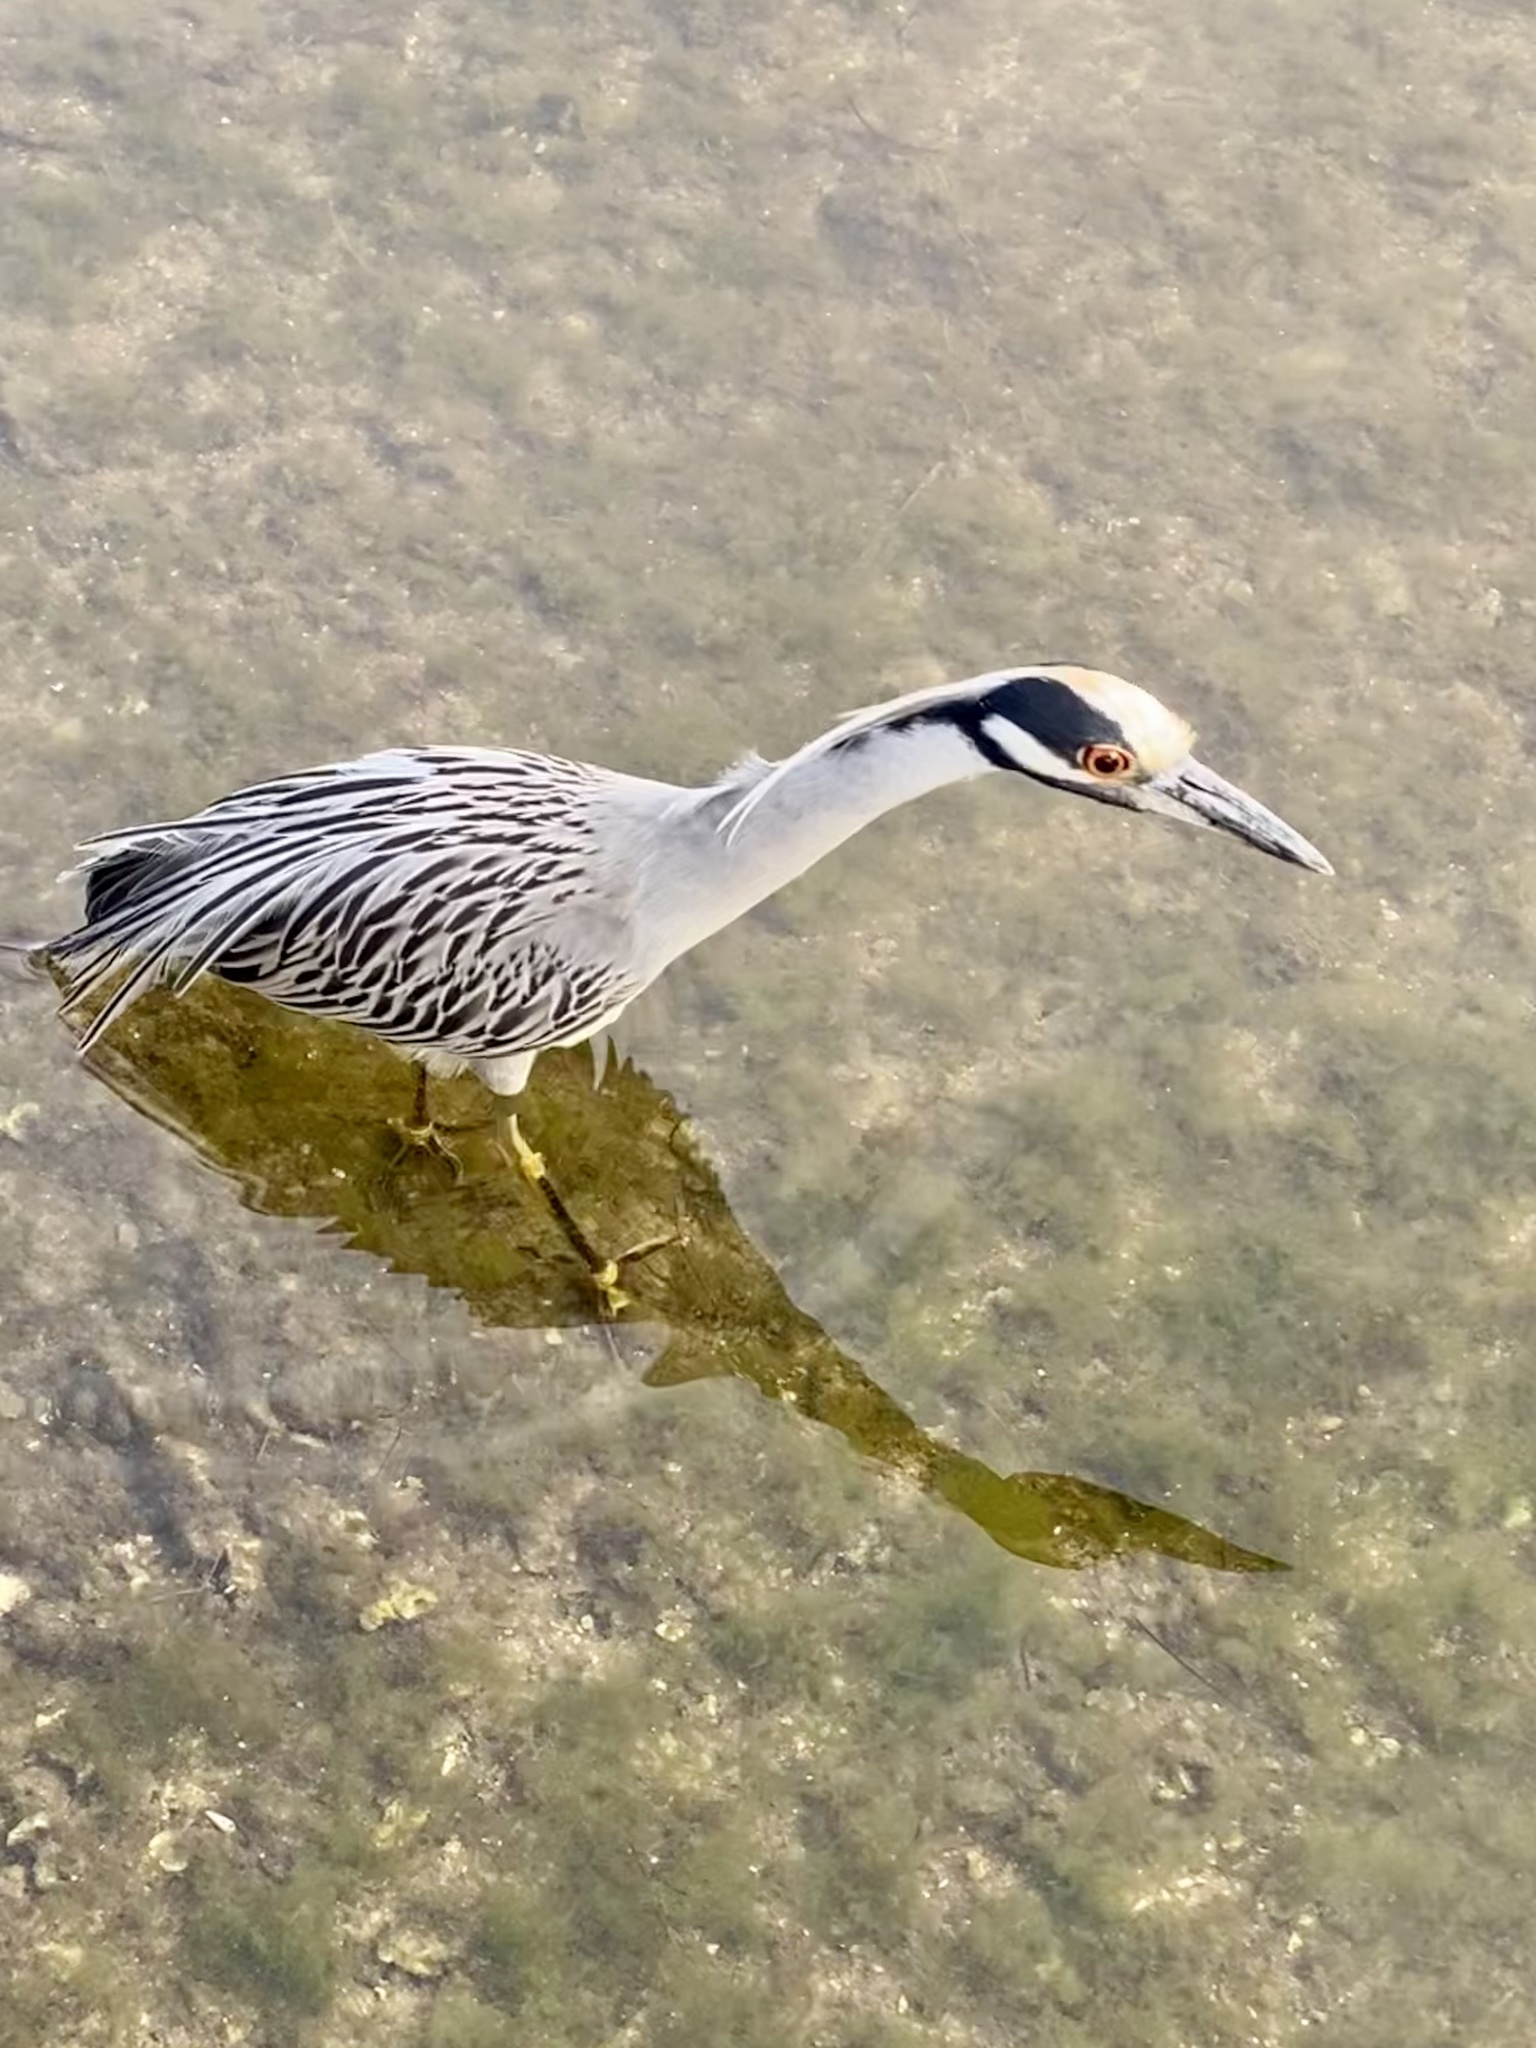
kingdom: Animalia
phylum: Chordata
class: Aves
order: Pelecaniformes
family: Ardeidae
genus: Nyctanassa
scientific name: Nyctanassa violacea
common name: Yellow-crowned night heron
